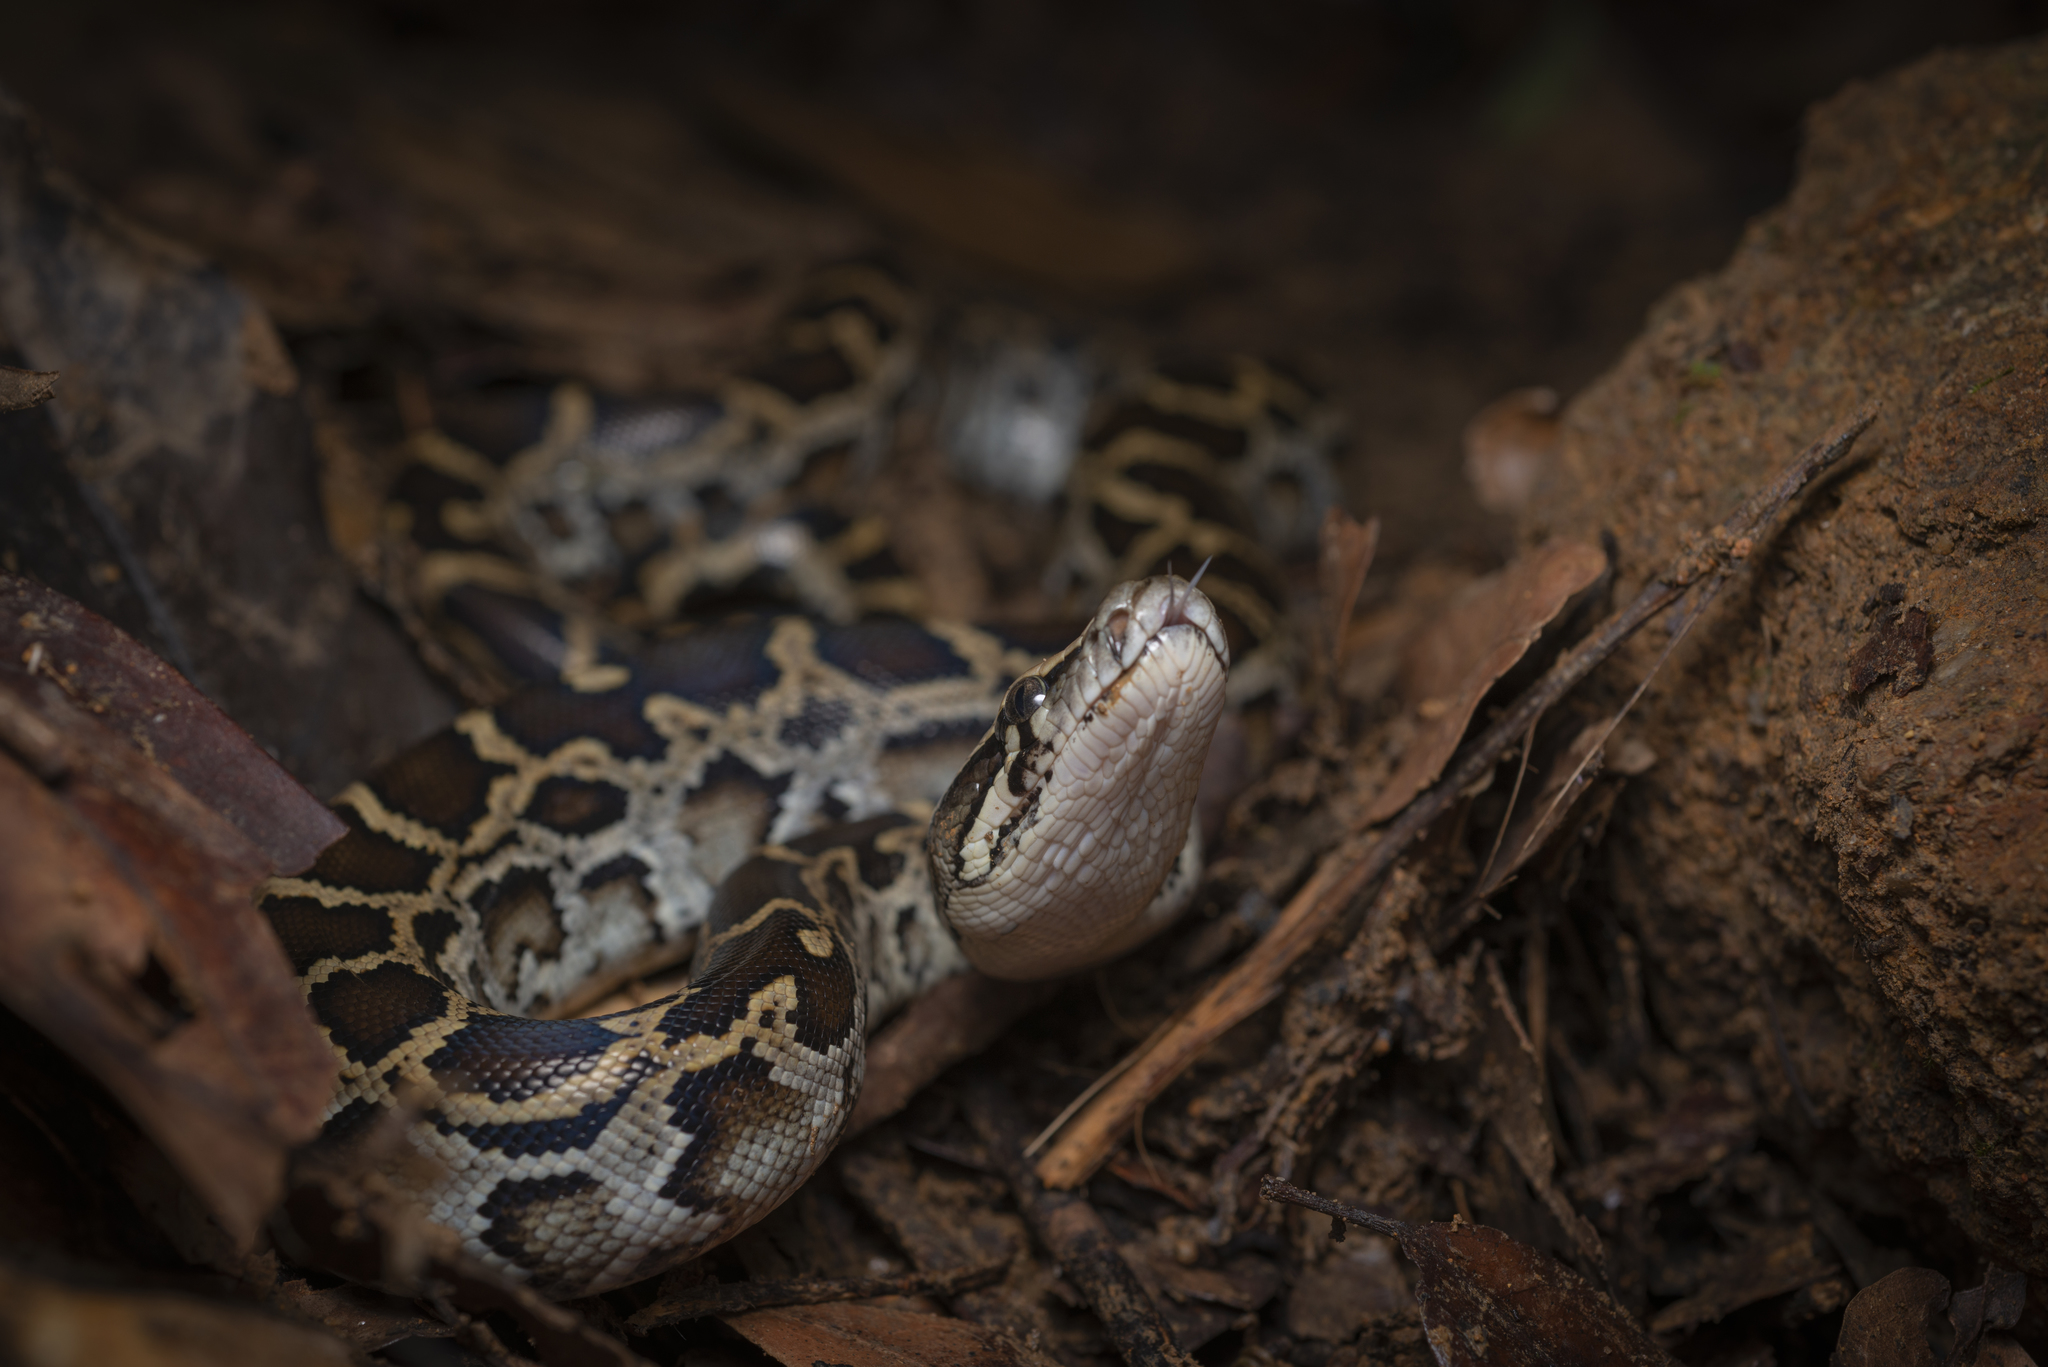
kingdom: Animalia
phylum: Chordata
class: Squamata
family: Pythonidae
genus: Python
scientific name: Python bivittatus
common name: Burmese python
